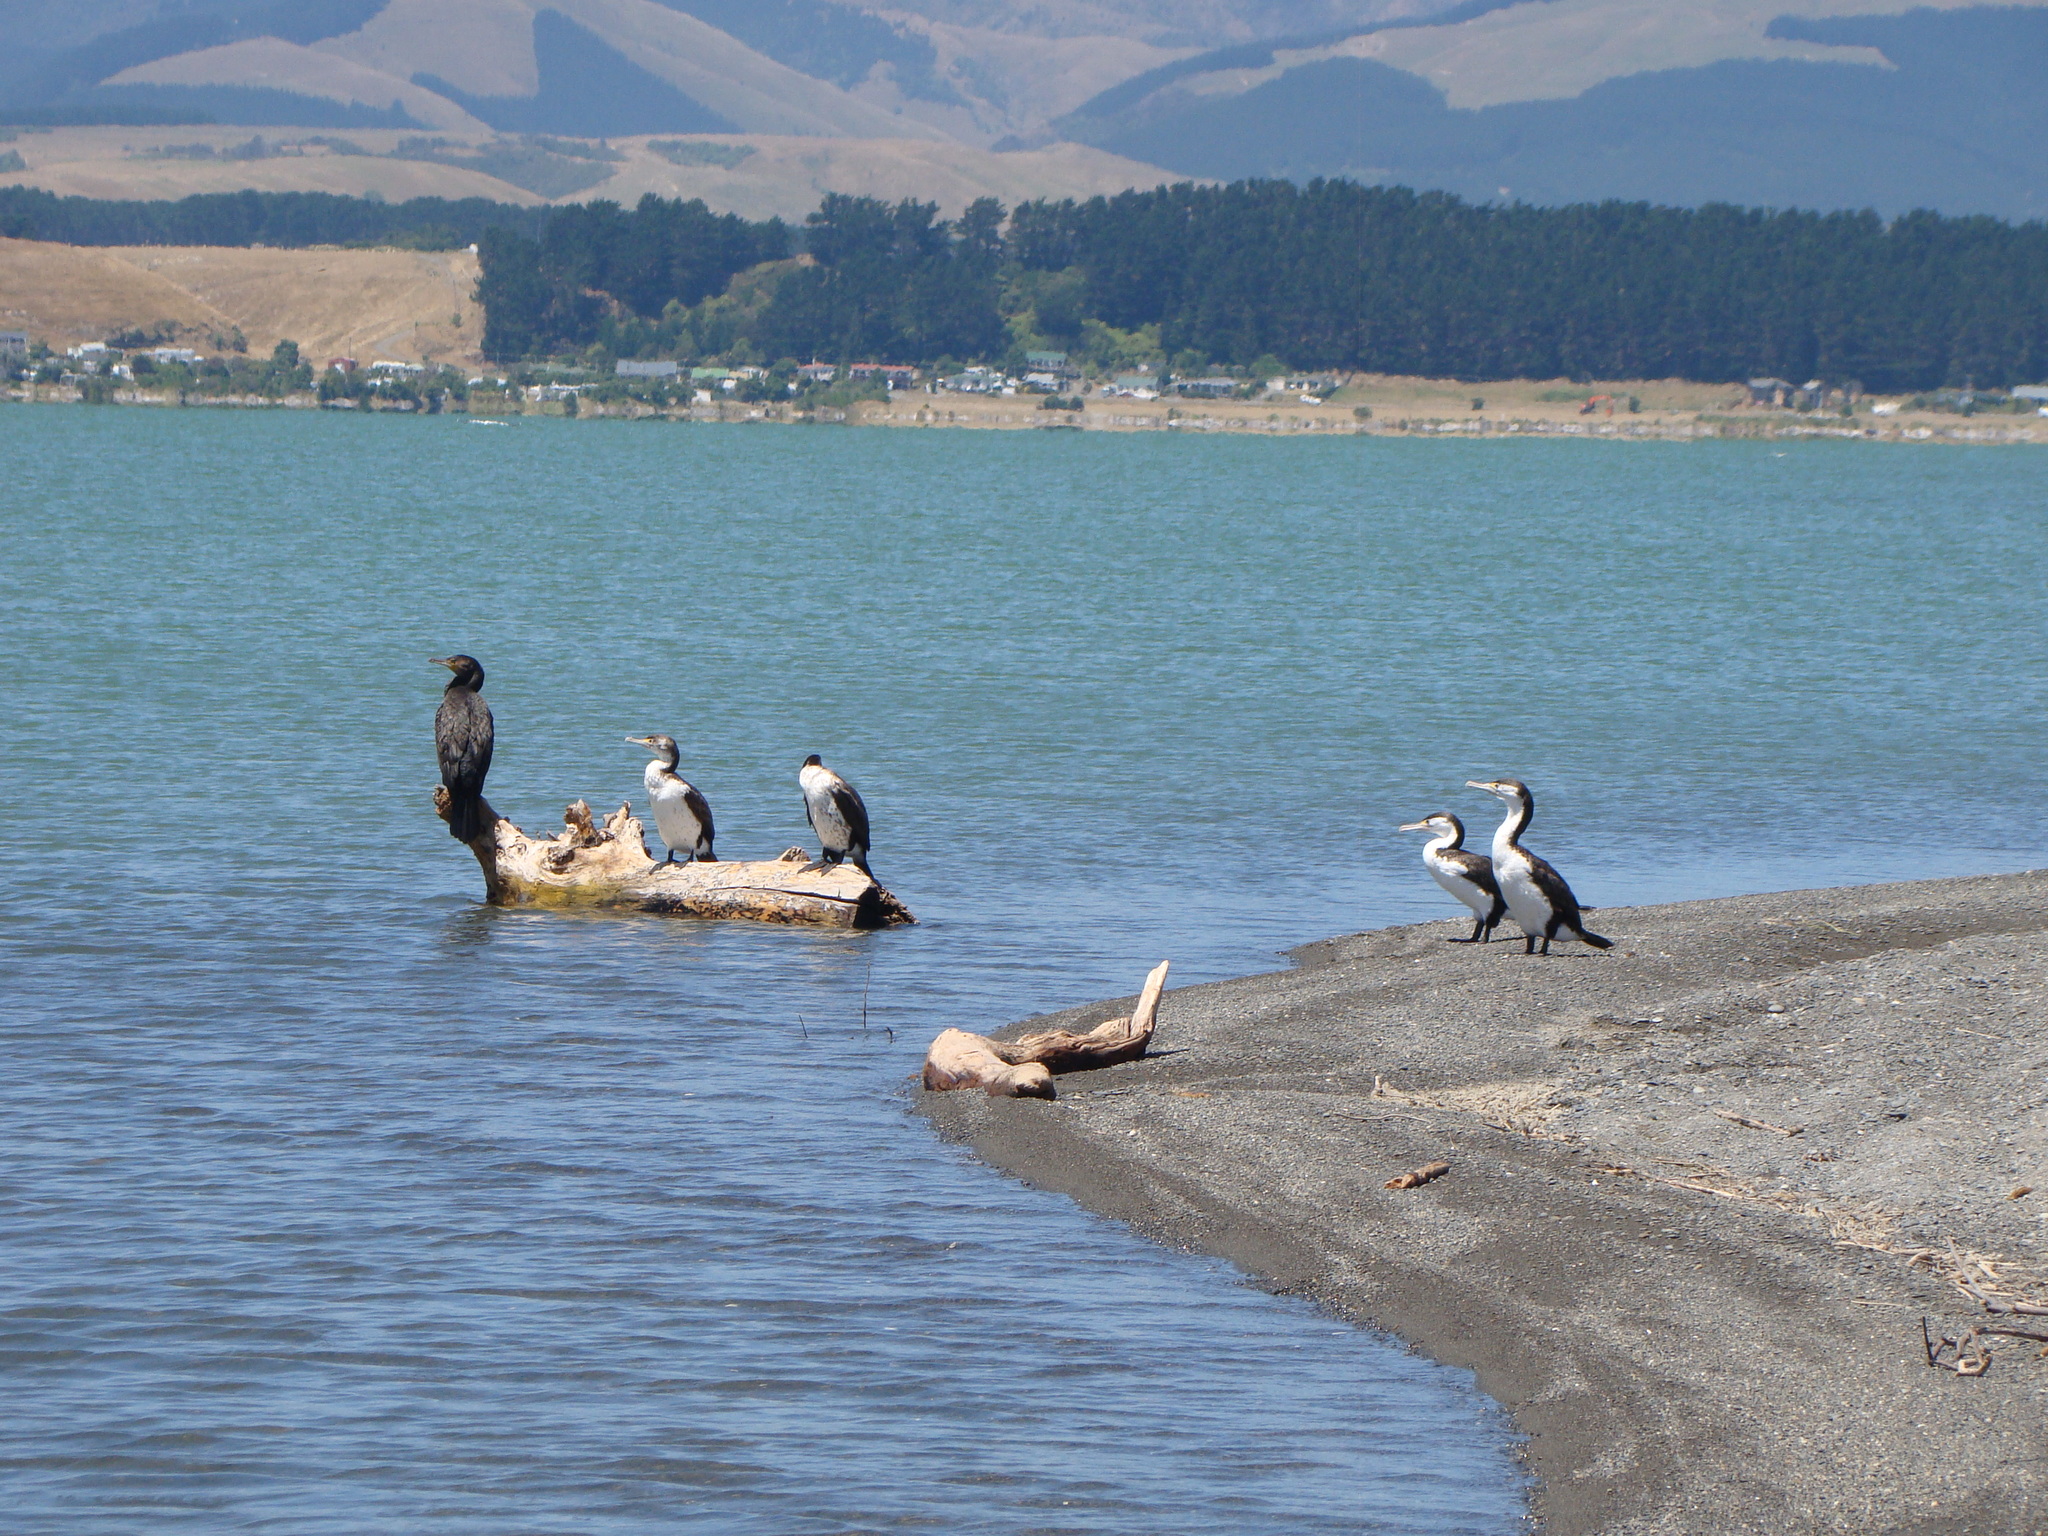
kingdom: Animalia
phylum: Chordata
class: Aves
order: Suliformes
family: Phalacrocoracidae
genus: Phalacrocorax
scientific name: Phalacrocorax varius
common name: Pied cormorant
